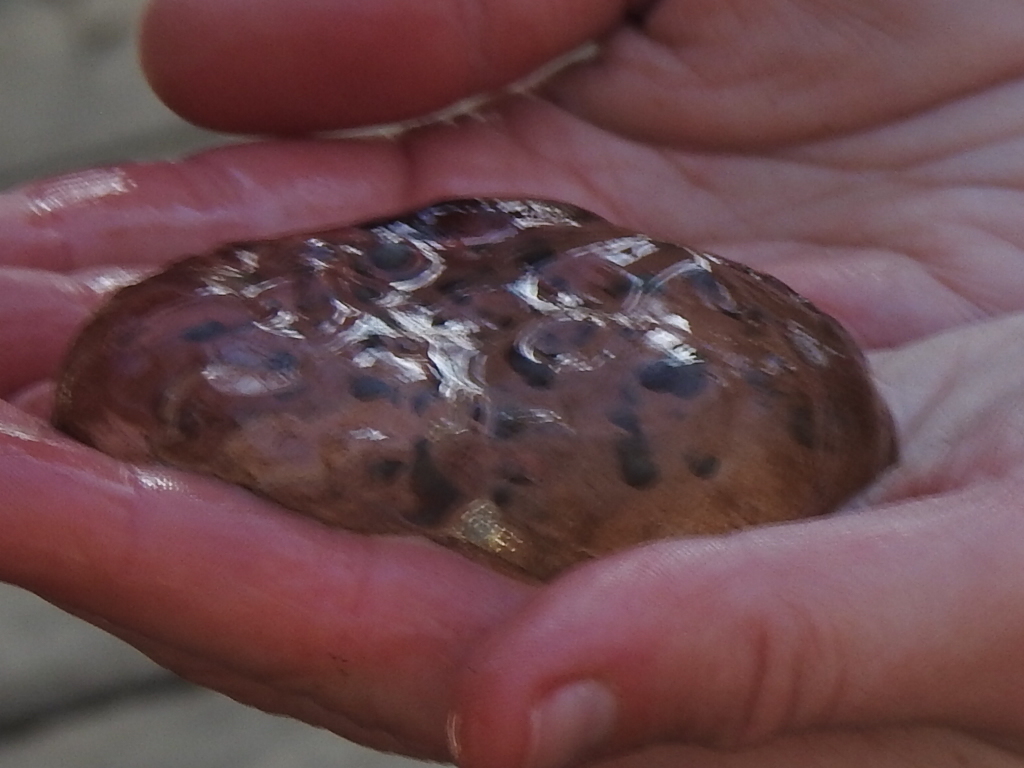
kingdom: Animalia
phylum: Chordata
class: Amphibia
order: Caudata
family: Ambystomatidae
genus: Ambystoma
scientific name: Ambystoma maculatum
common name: Spotted salamander
